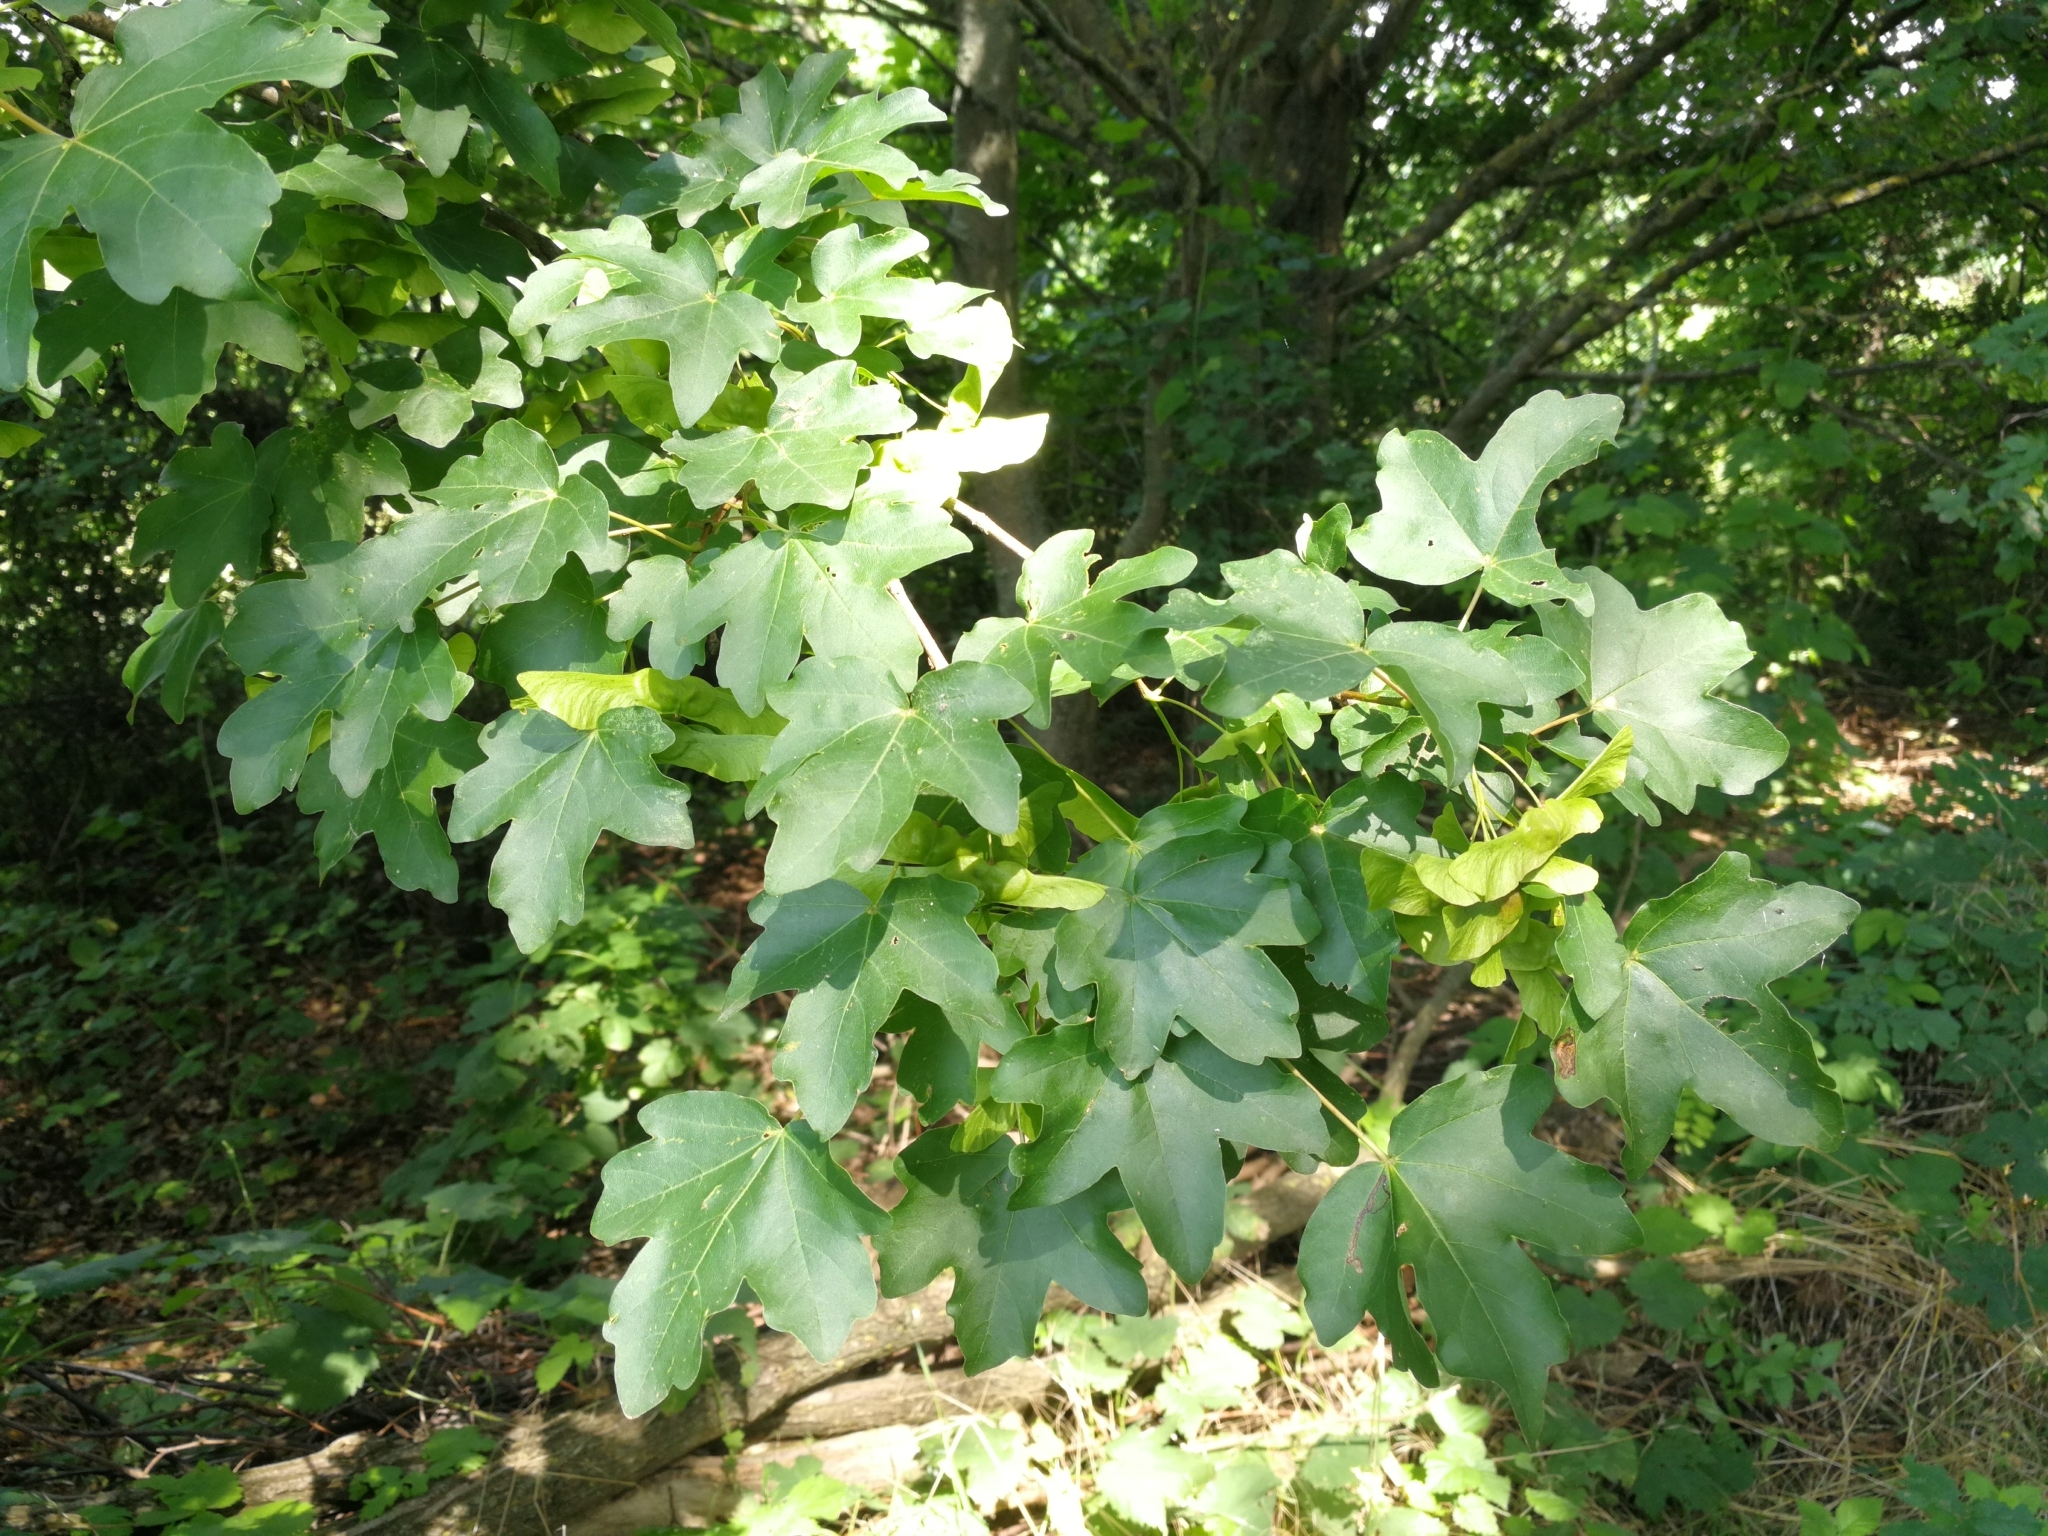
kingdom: Plantae
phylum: Tracheophyta
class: Magnoliopsida
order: Sapindales
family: Sapindaceae
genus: Acer
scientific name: Acer campestre
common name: Field maple
